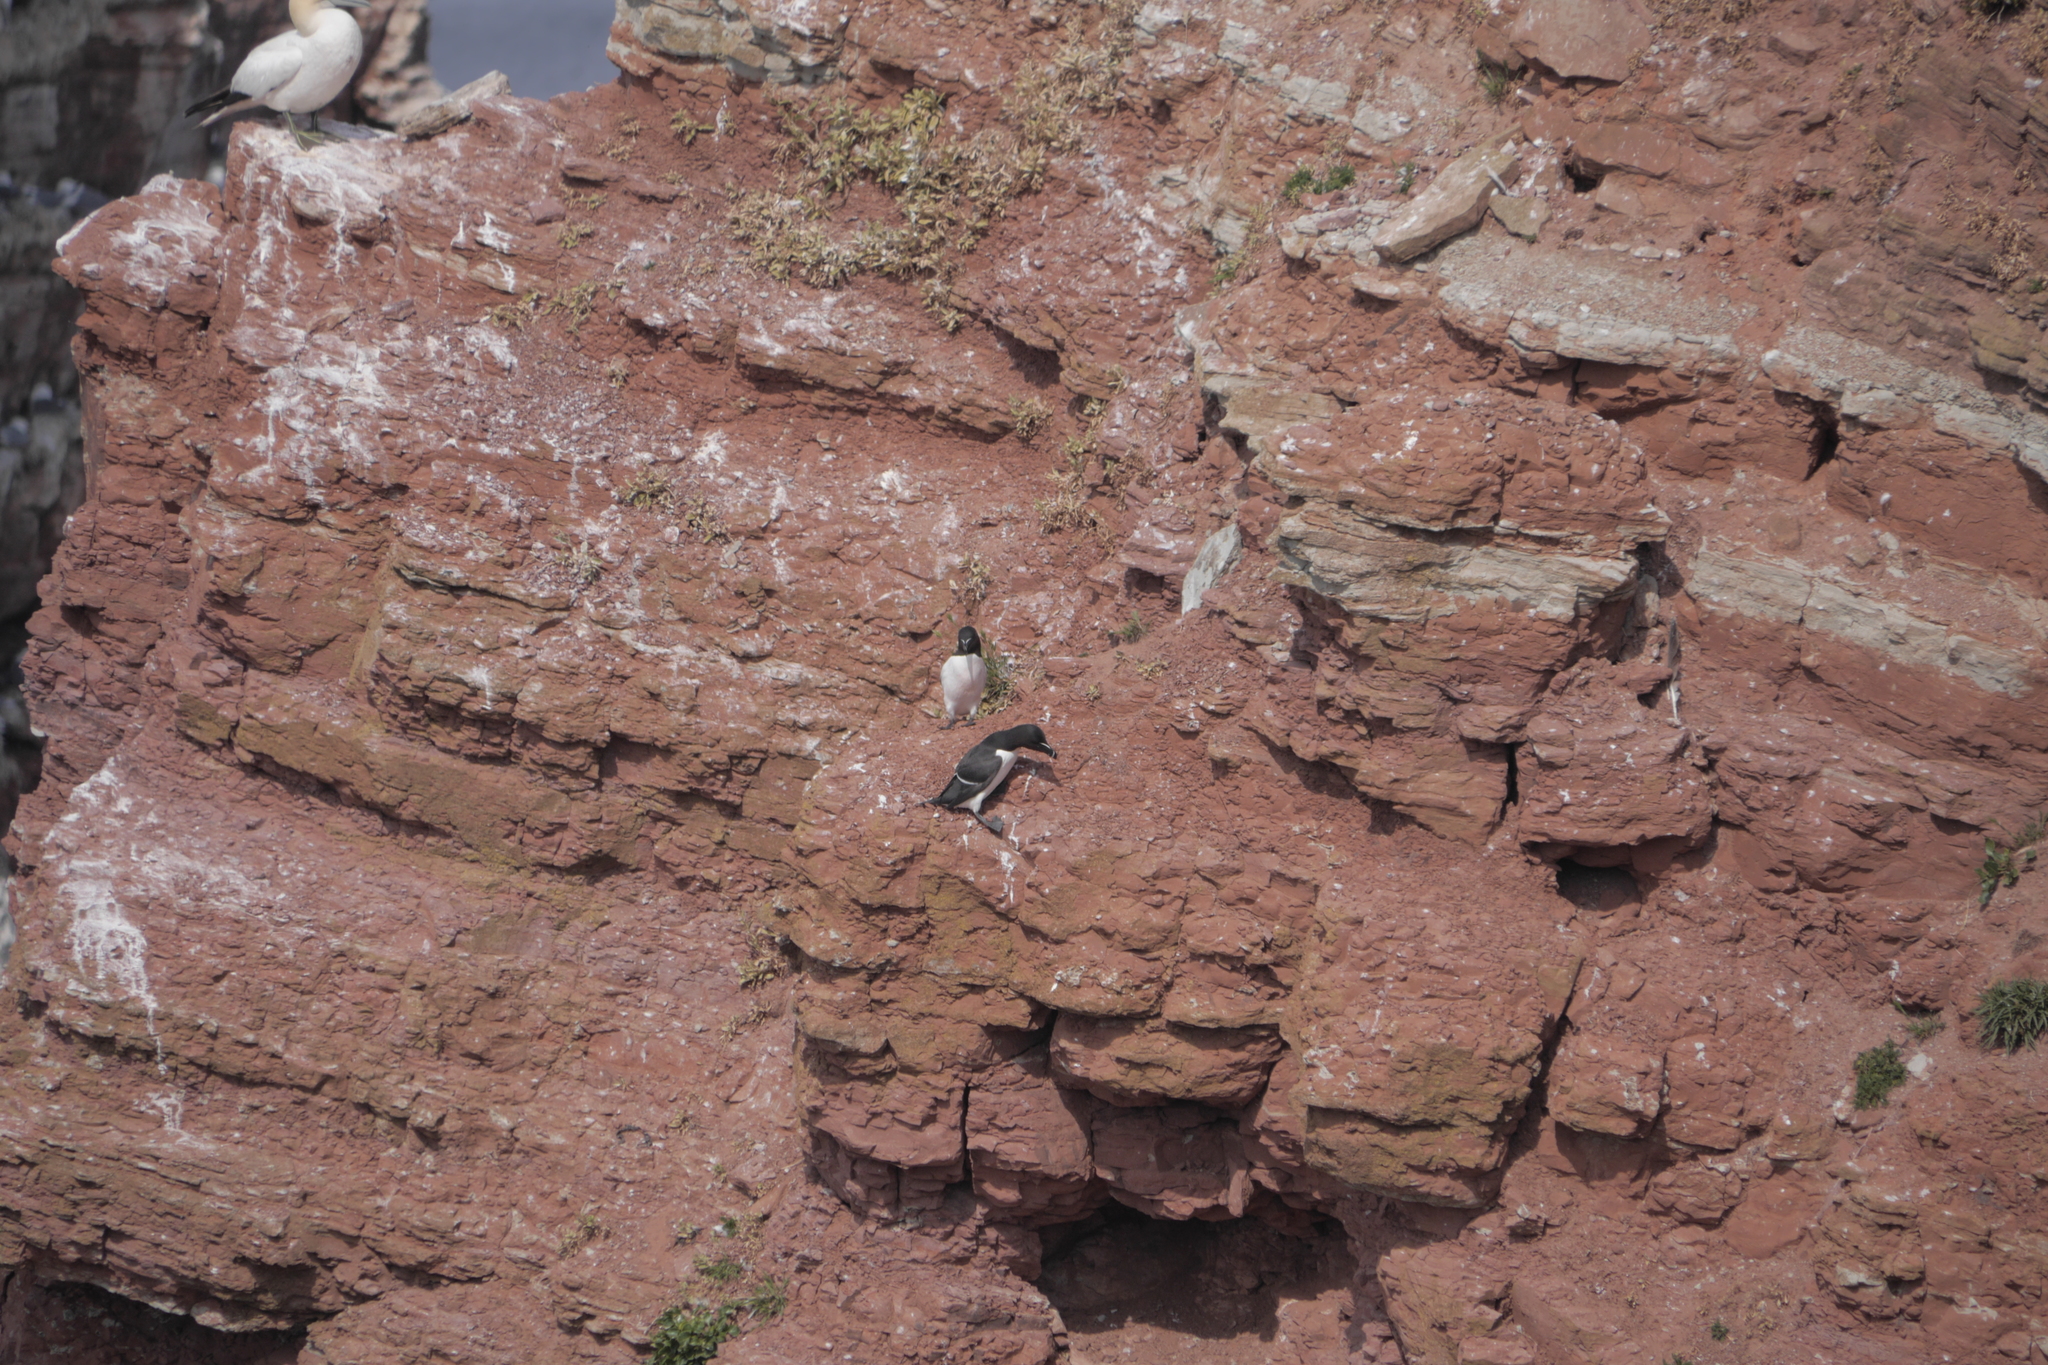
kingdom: Animalia
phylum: Chordata
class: Aves
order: Charadriiformes
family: Alcidae
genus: Alca
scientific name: Alca torda
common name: Razorbill
